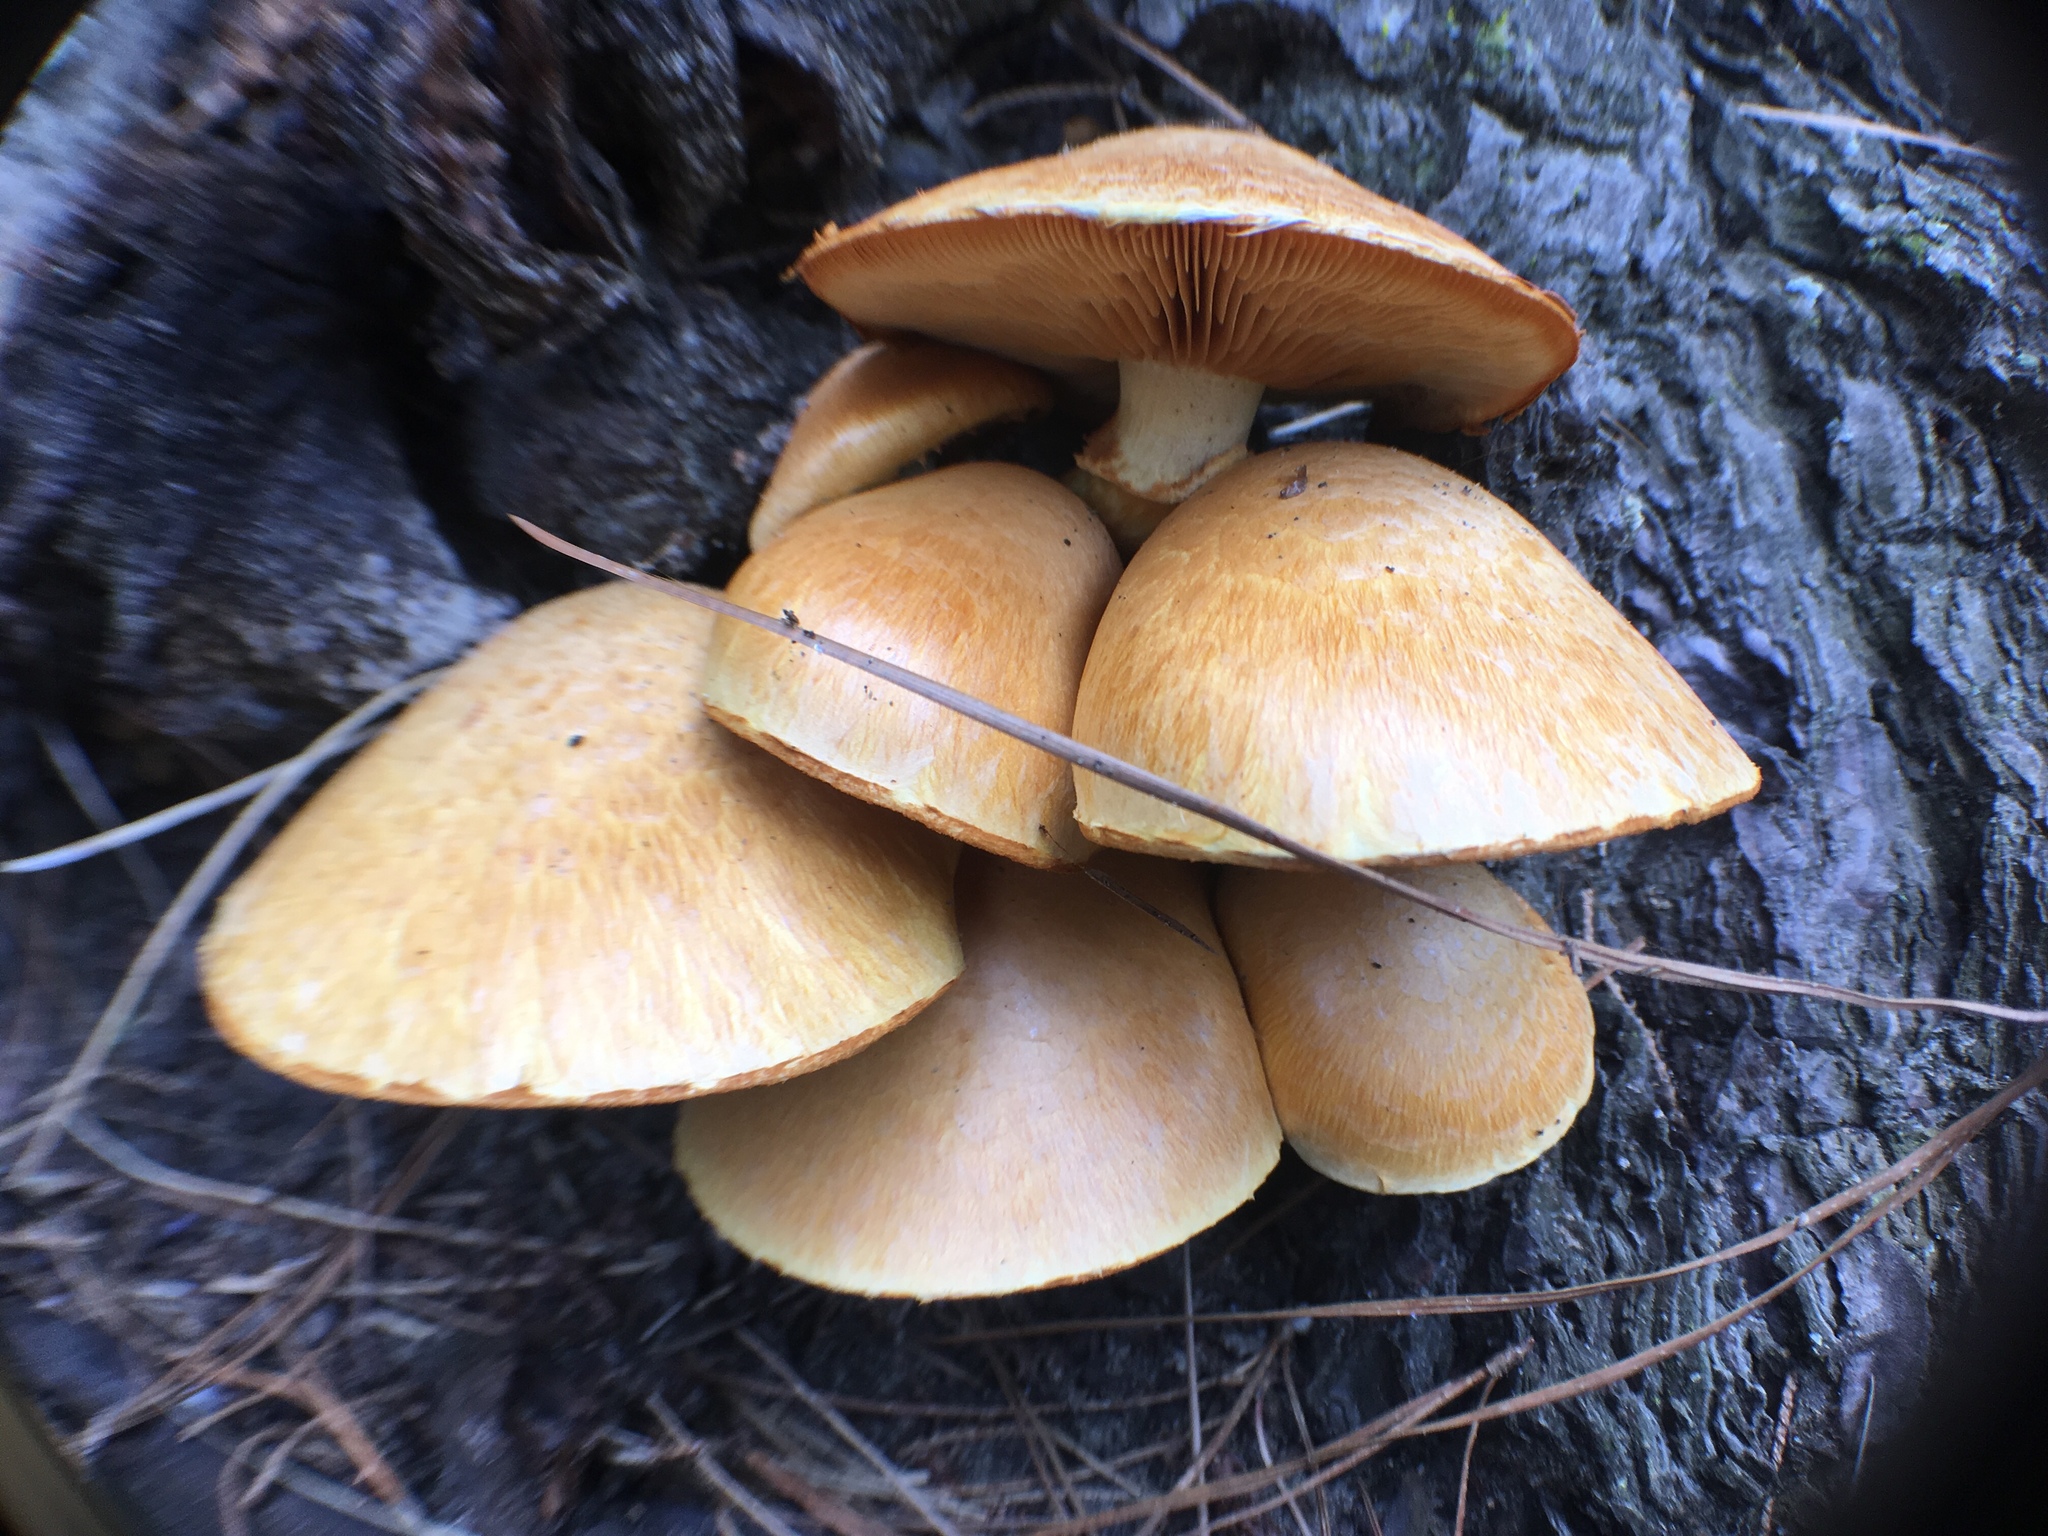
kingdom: Fungi
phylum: Basidiomycota
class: Agaricomycetes
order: Agaricales
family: Hymenogastraceae
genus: Gymnopilus
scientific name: Gymnopilus junonius
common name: Spectacular rustgill
